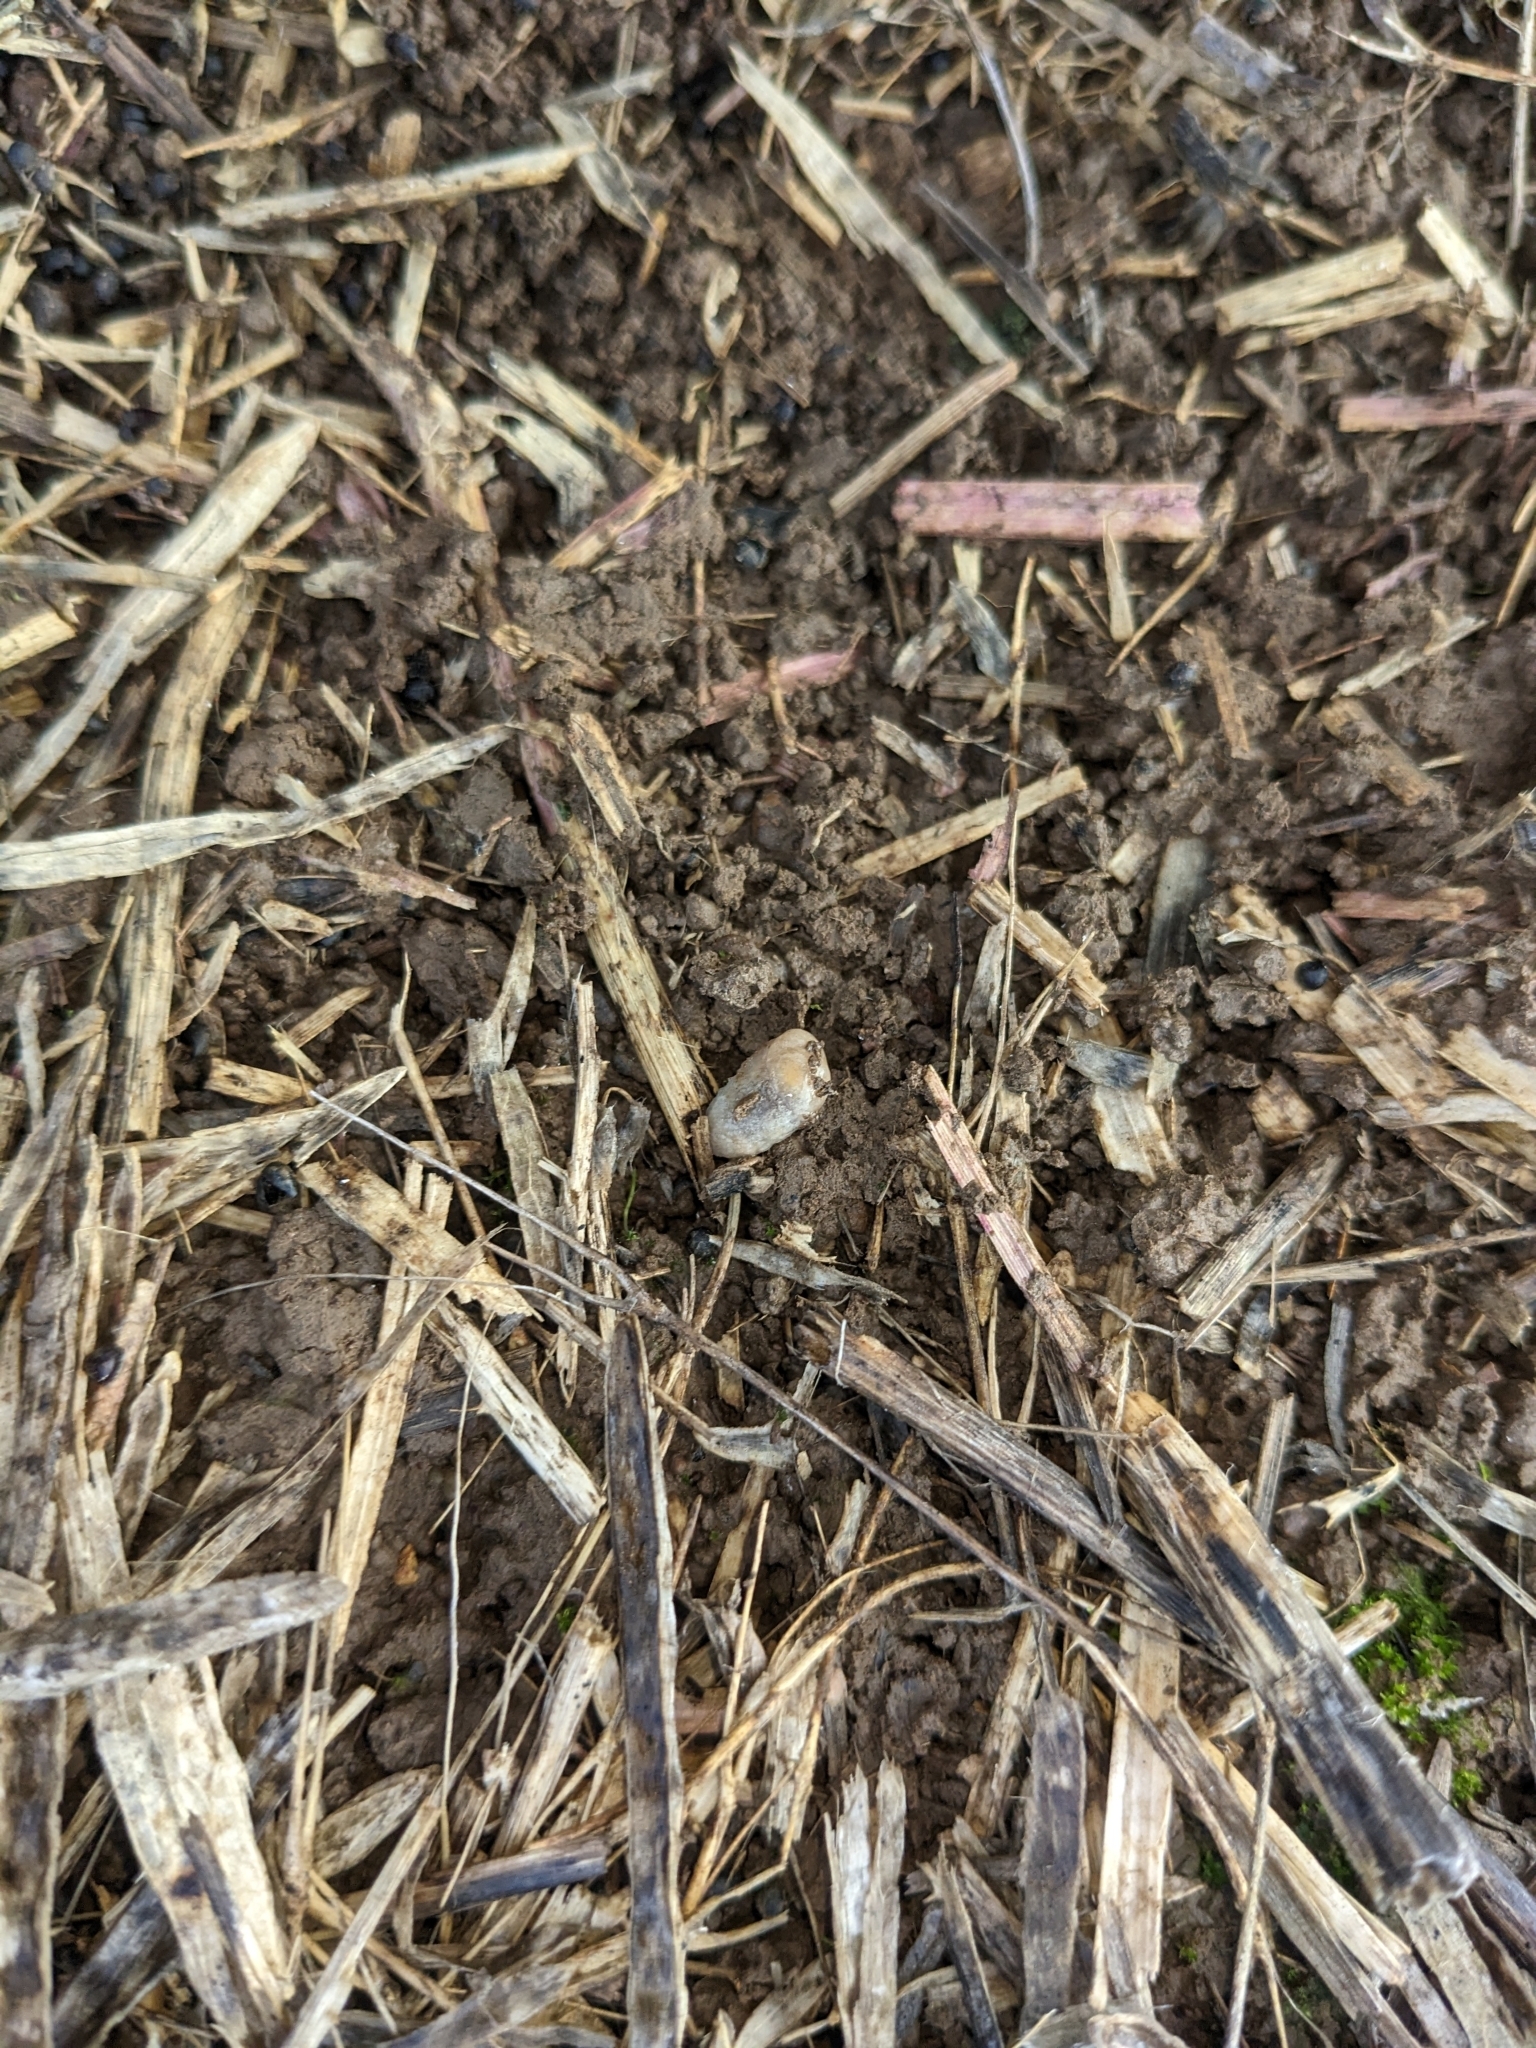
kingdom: Animalia
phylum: Mollusca
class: Gastropoda
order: Stylommatophora
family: Agriolimacidae
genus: Deroceras
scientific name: Deroceras reticulatum
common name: Gray field slug
